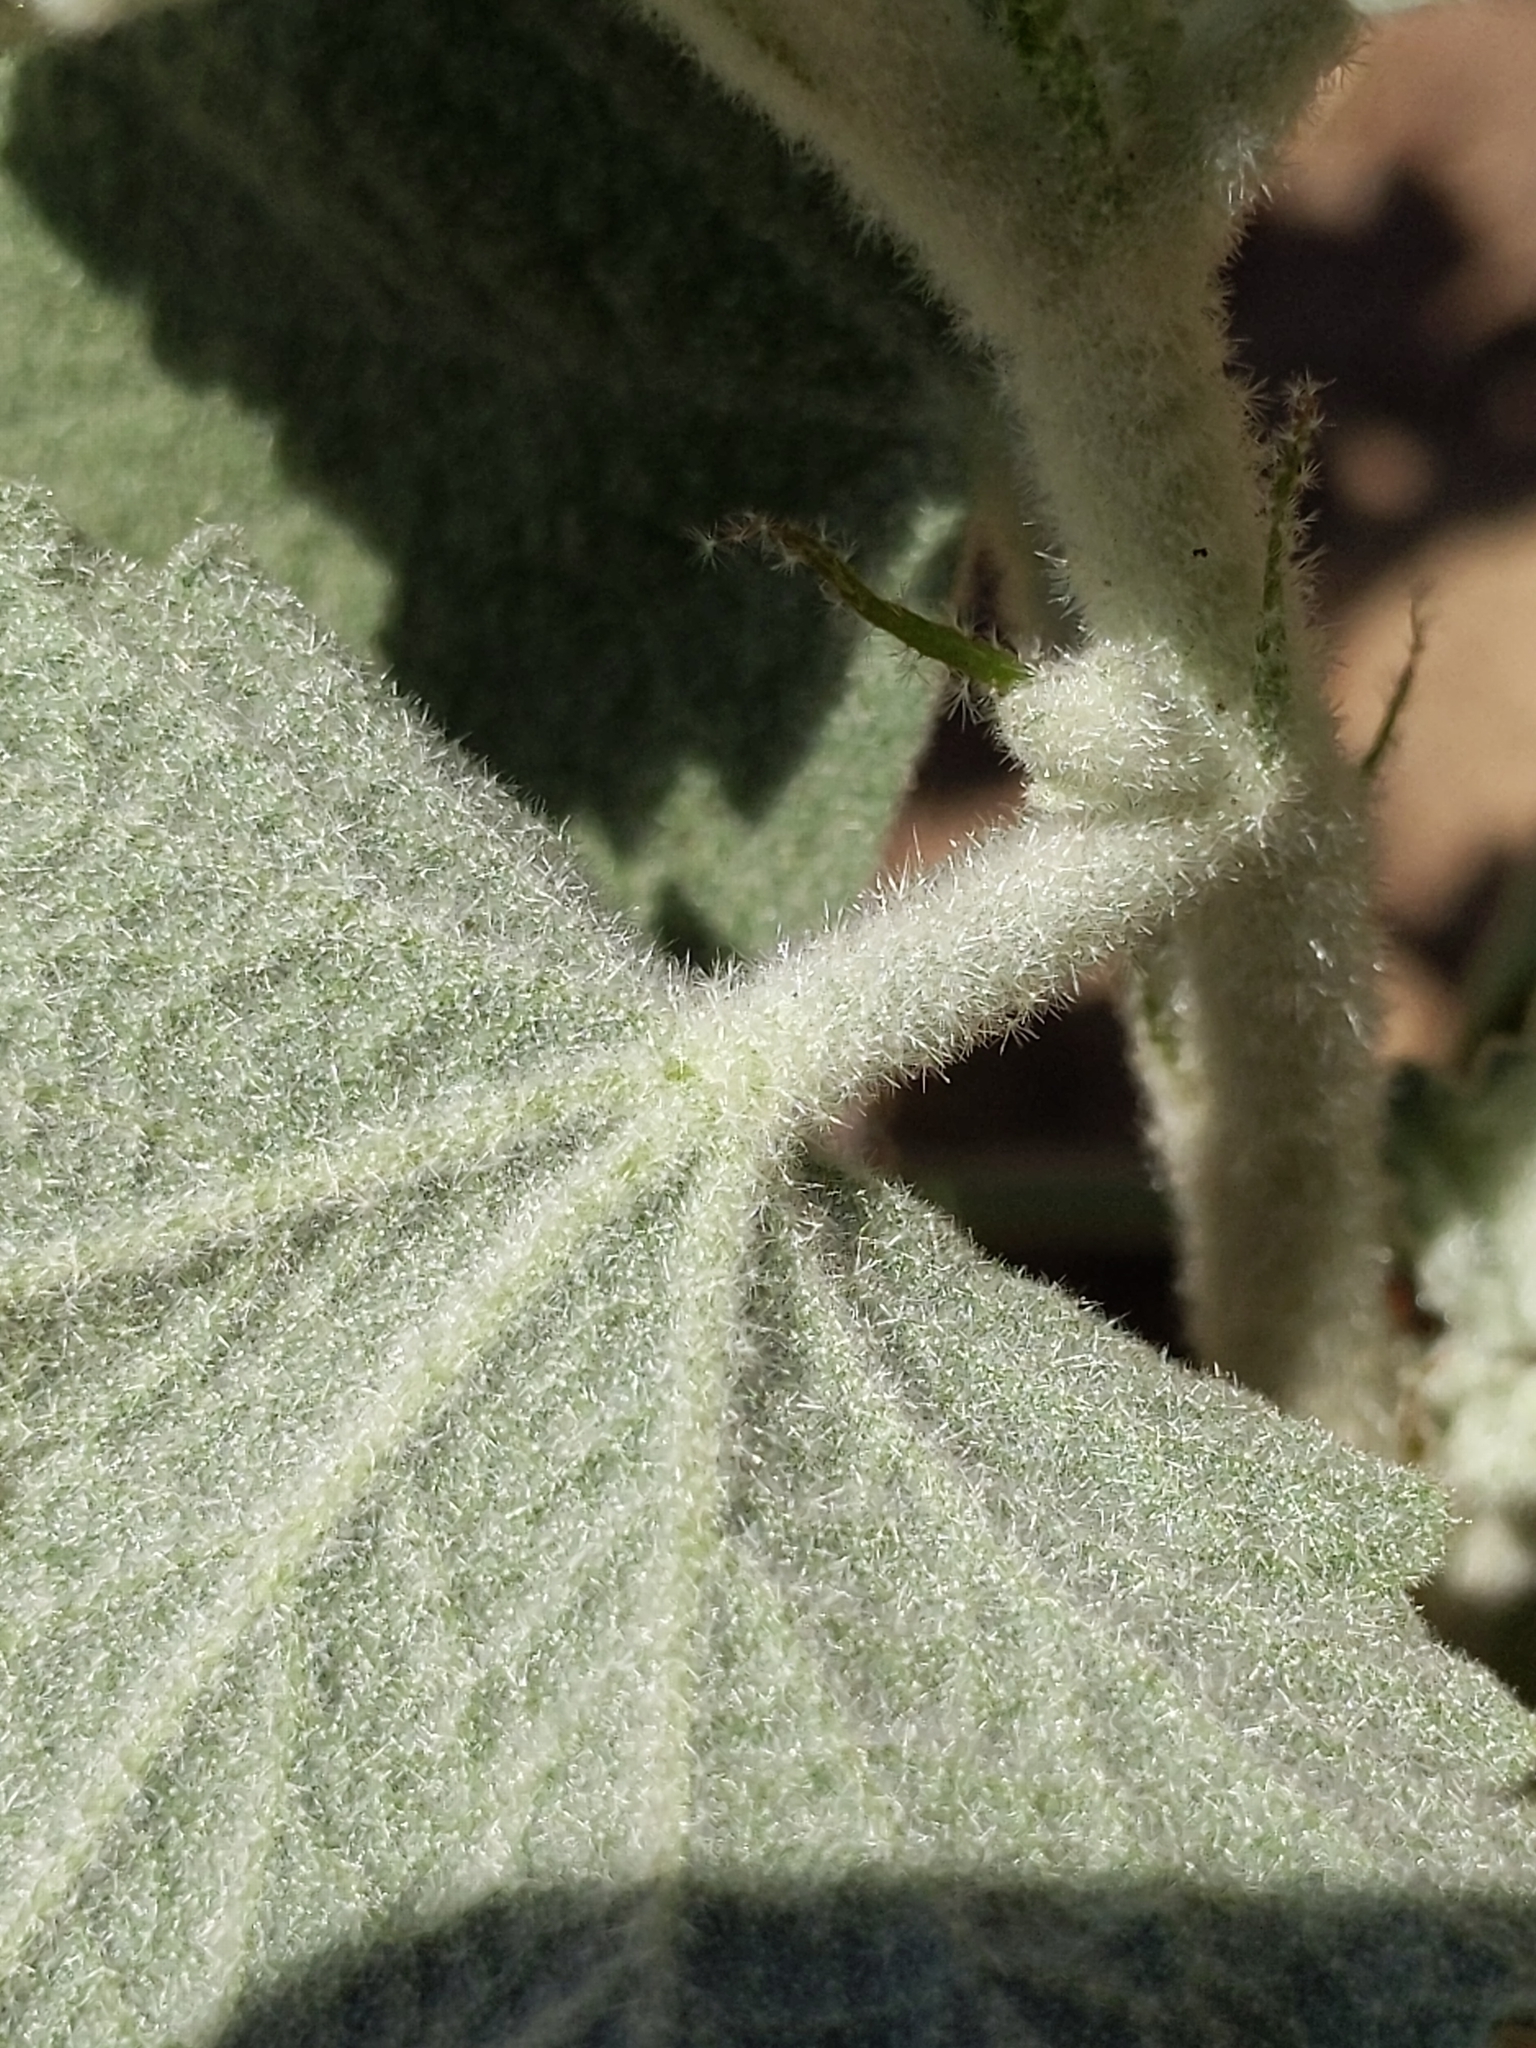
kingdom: Plantae
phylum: Tracheophyta
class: Magnoliopsida
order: Malvales
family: Malvaceae
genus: Malacothamnus
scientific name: Malacothamnus fremontii
